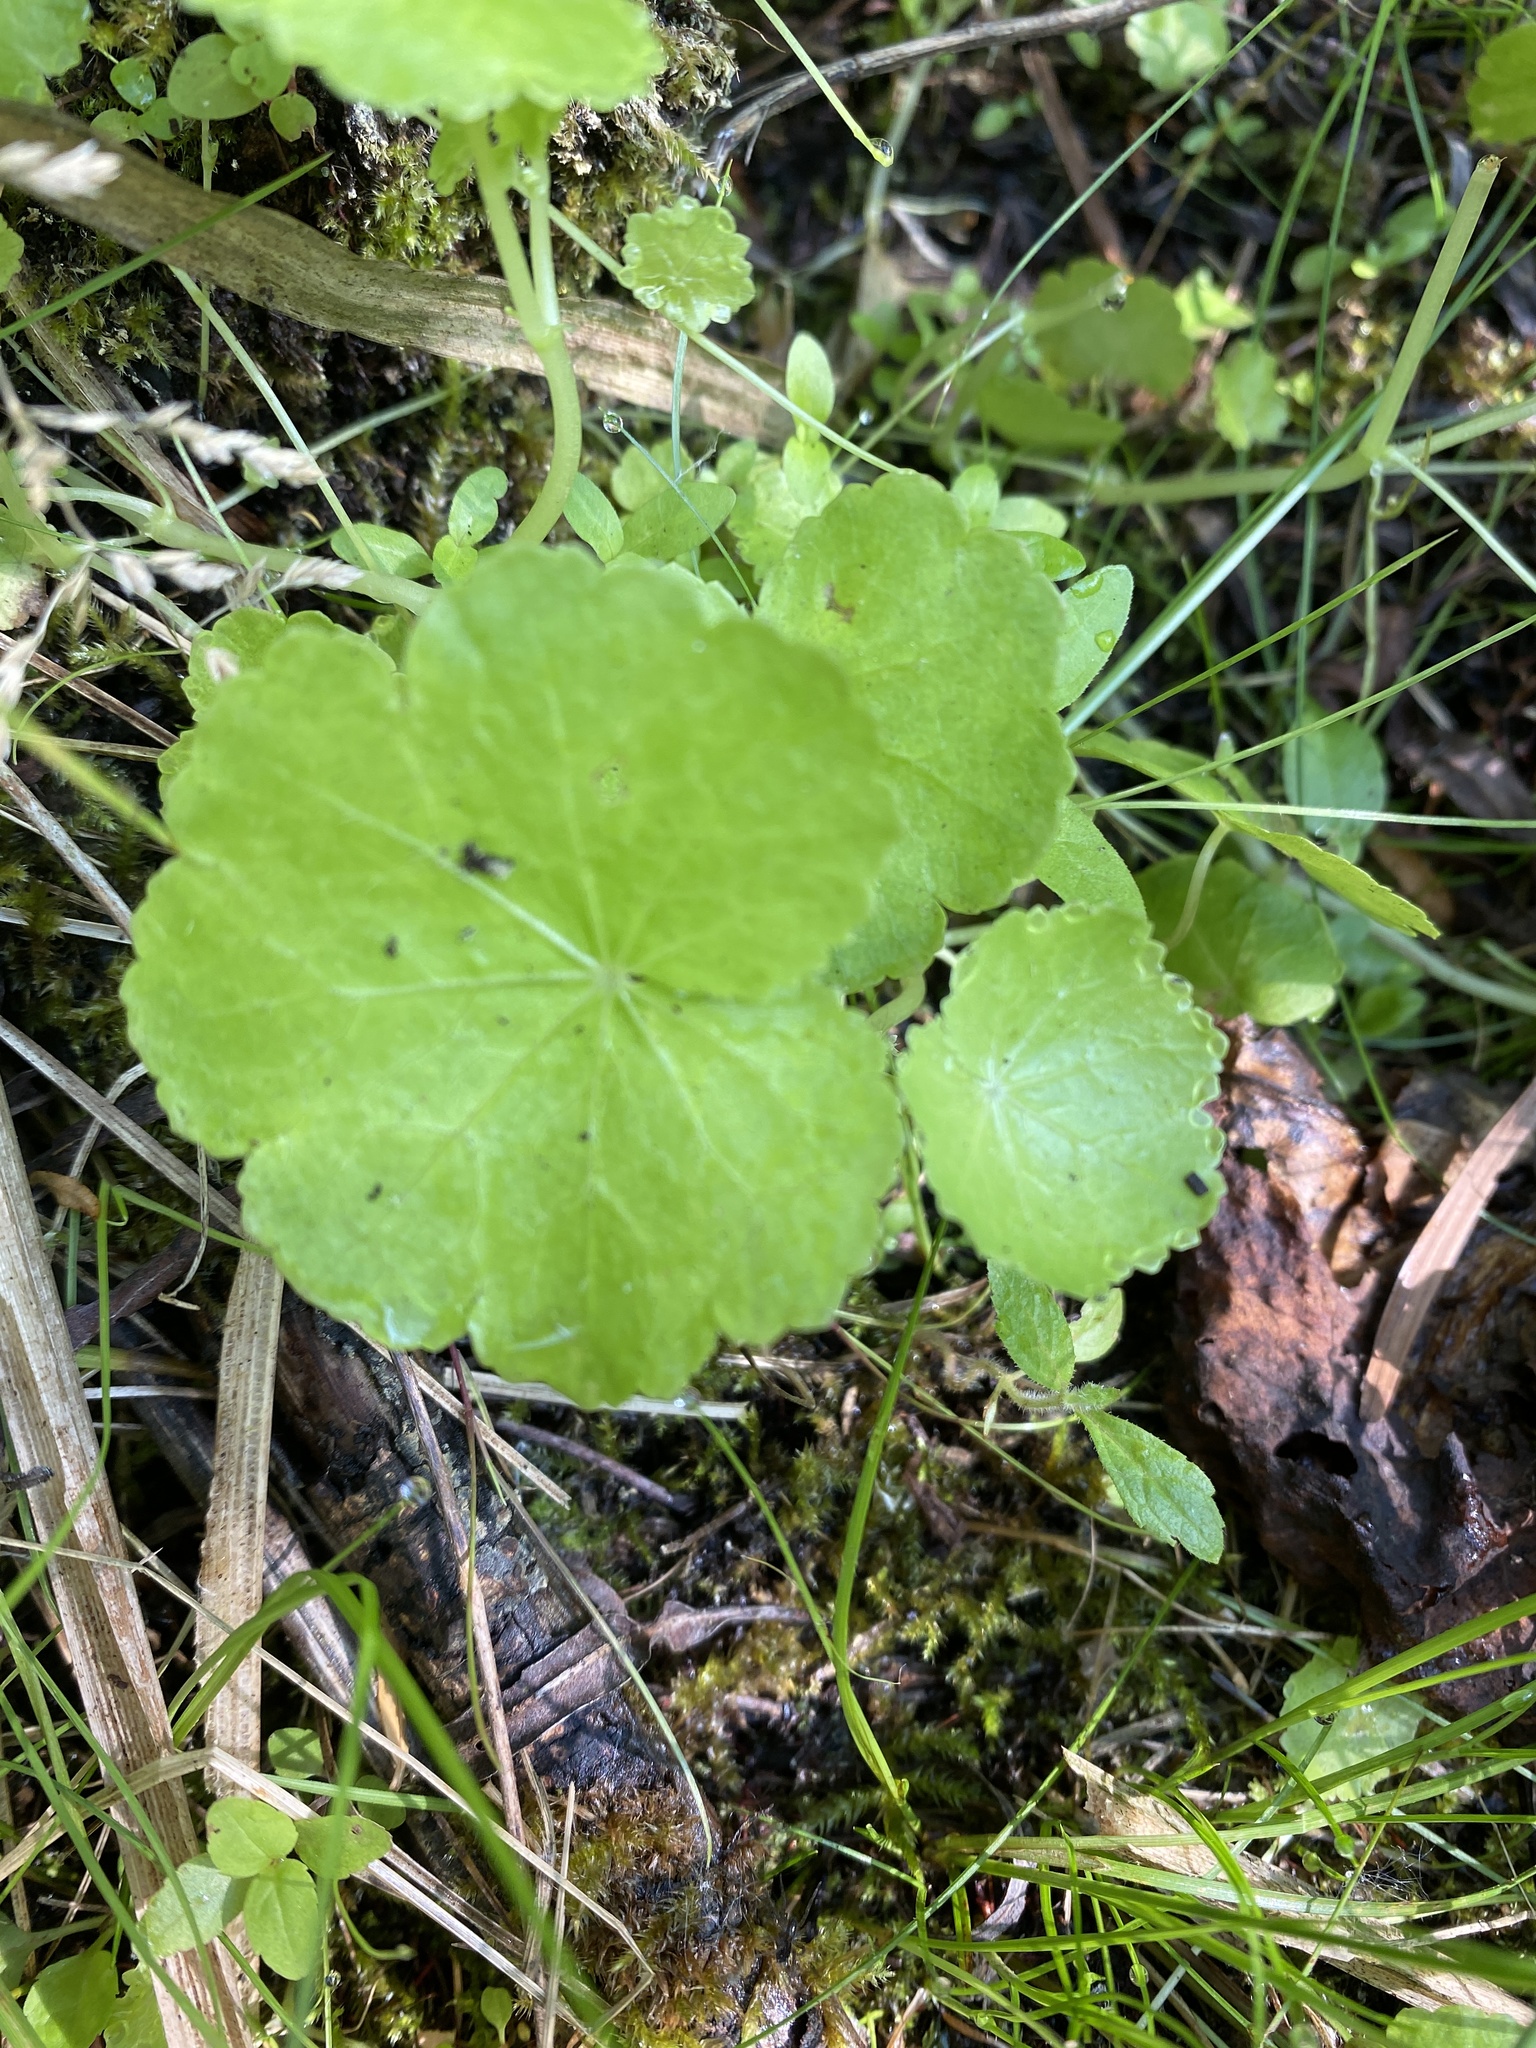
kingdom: Plantae
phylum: Tracheophyta
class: Magnoliopsida
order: Apiales
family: Araliaceae
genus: Hydrocotyle
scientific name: Hydrocotyle americana
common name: American water-pennywort
